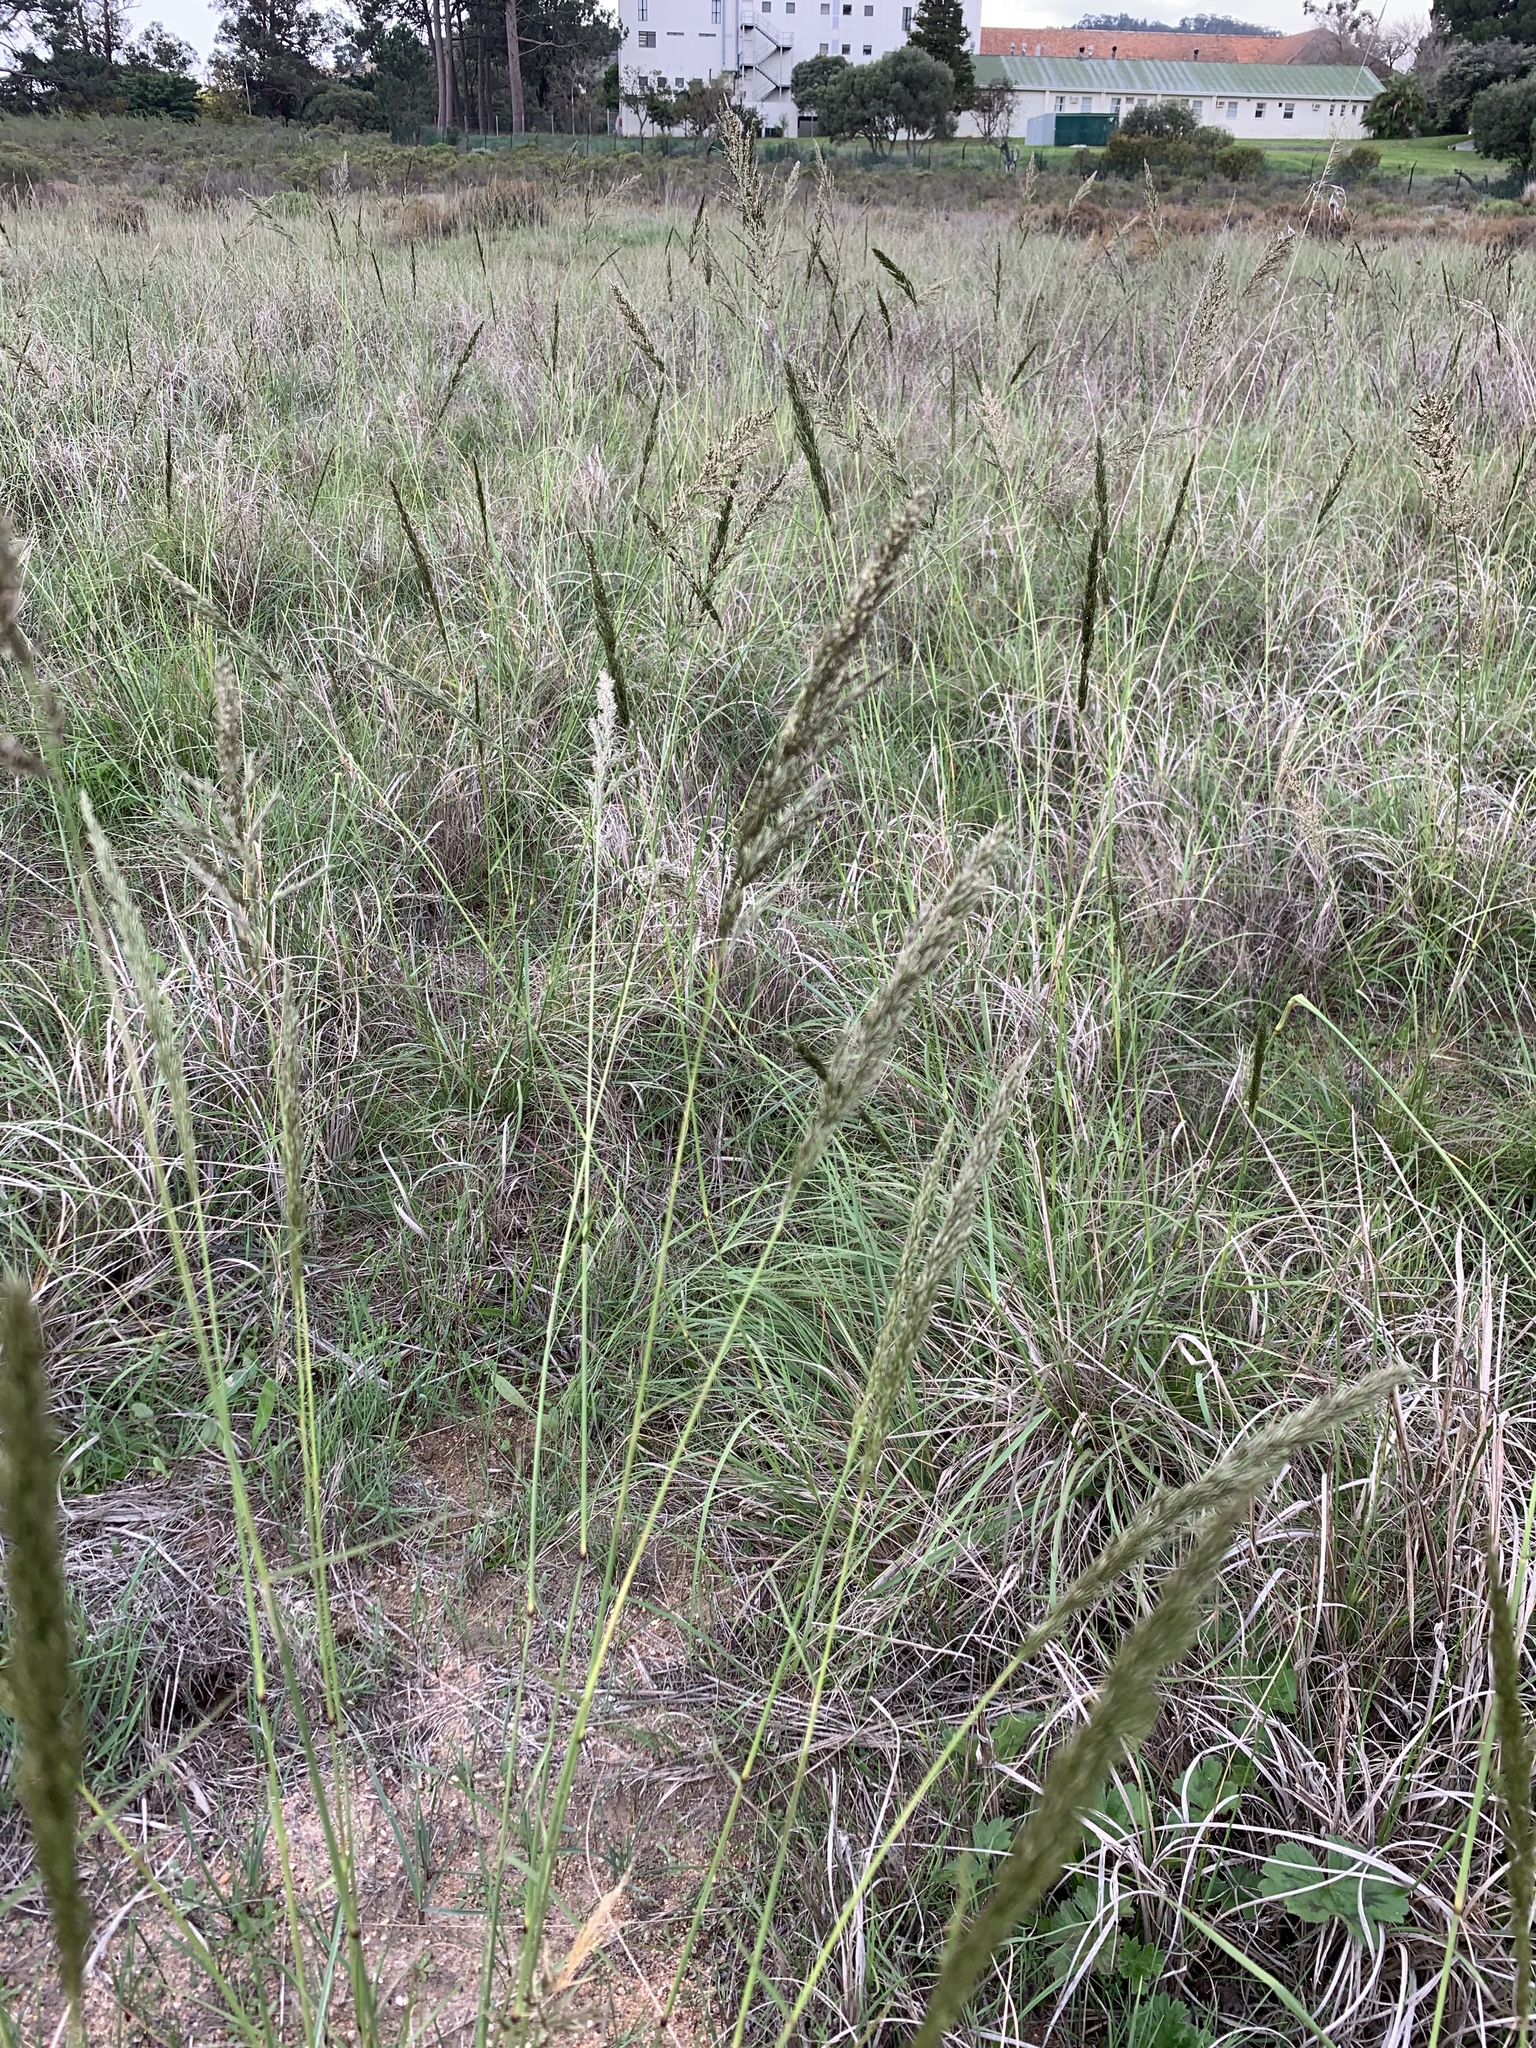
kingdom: Plantae
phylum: Tracheophyta
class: Liliopsida
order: Poales
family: Poaceae
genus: Eragrostis
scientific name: Eragrostis curvula
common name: African love-grass
